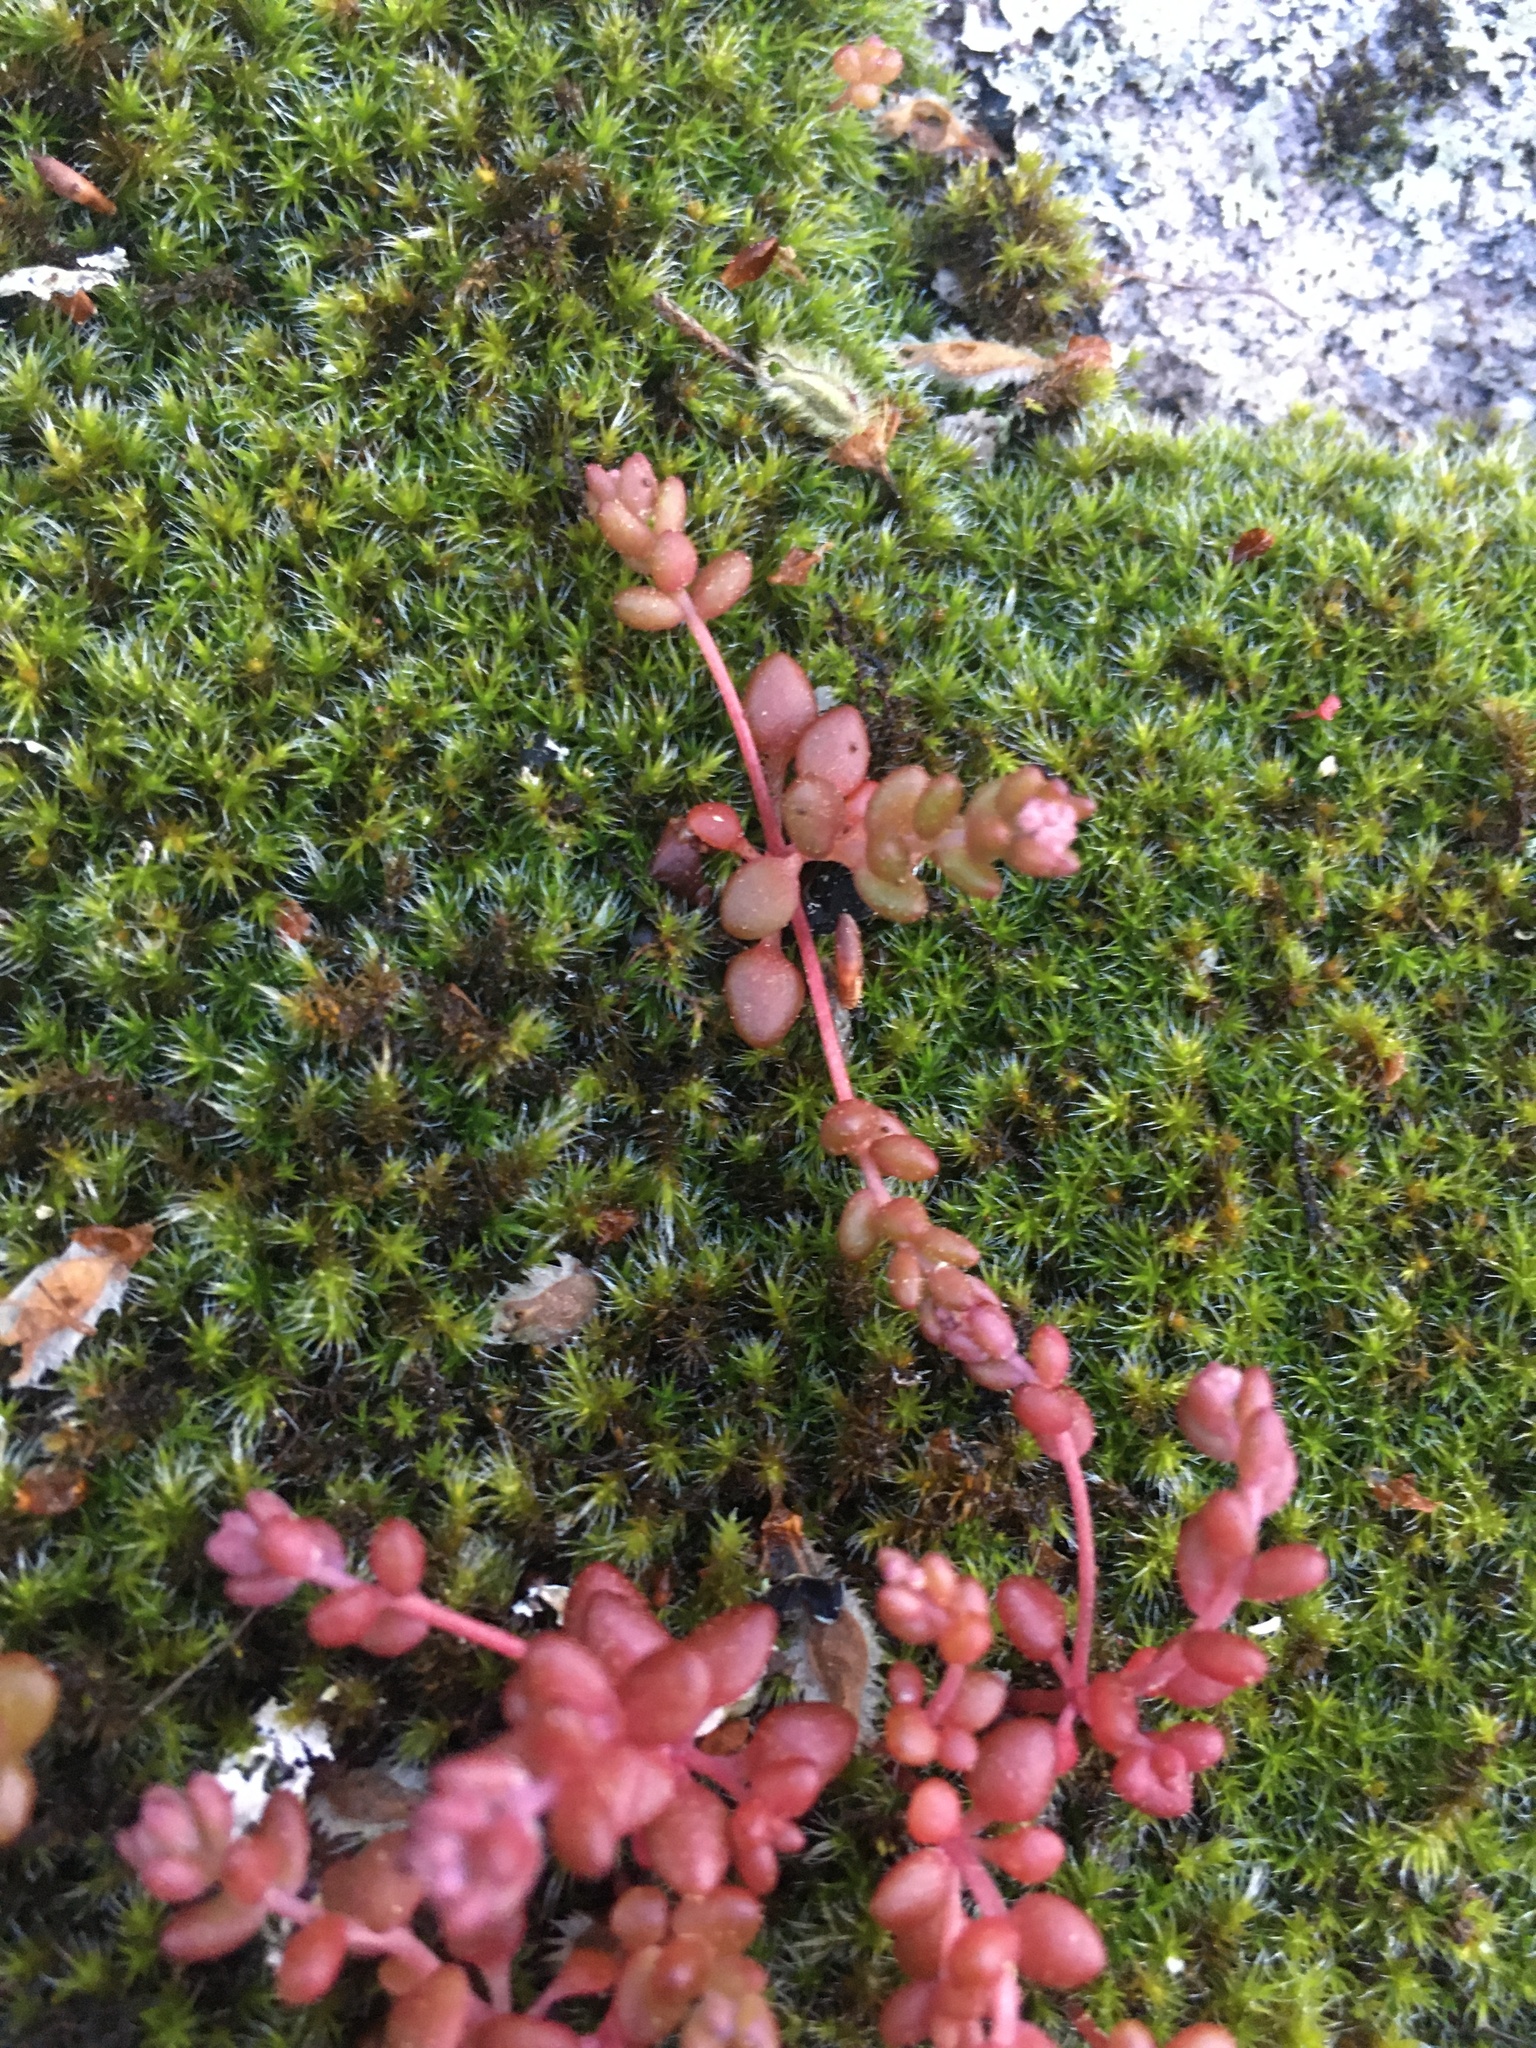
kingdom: Plantae
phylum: Tracheophyta
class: Magnoliopsida
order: Saxifragales
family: Crassulaceae
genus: Sedum
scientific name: Sedum smallii
